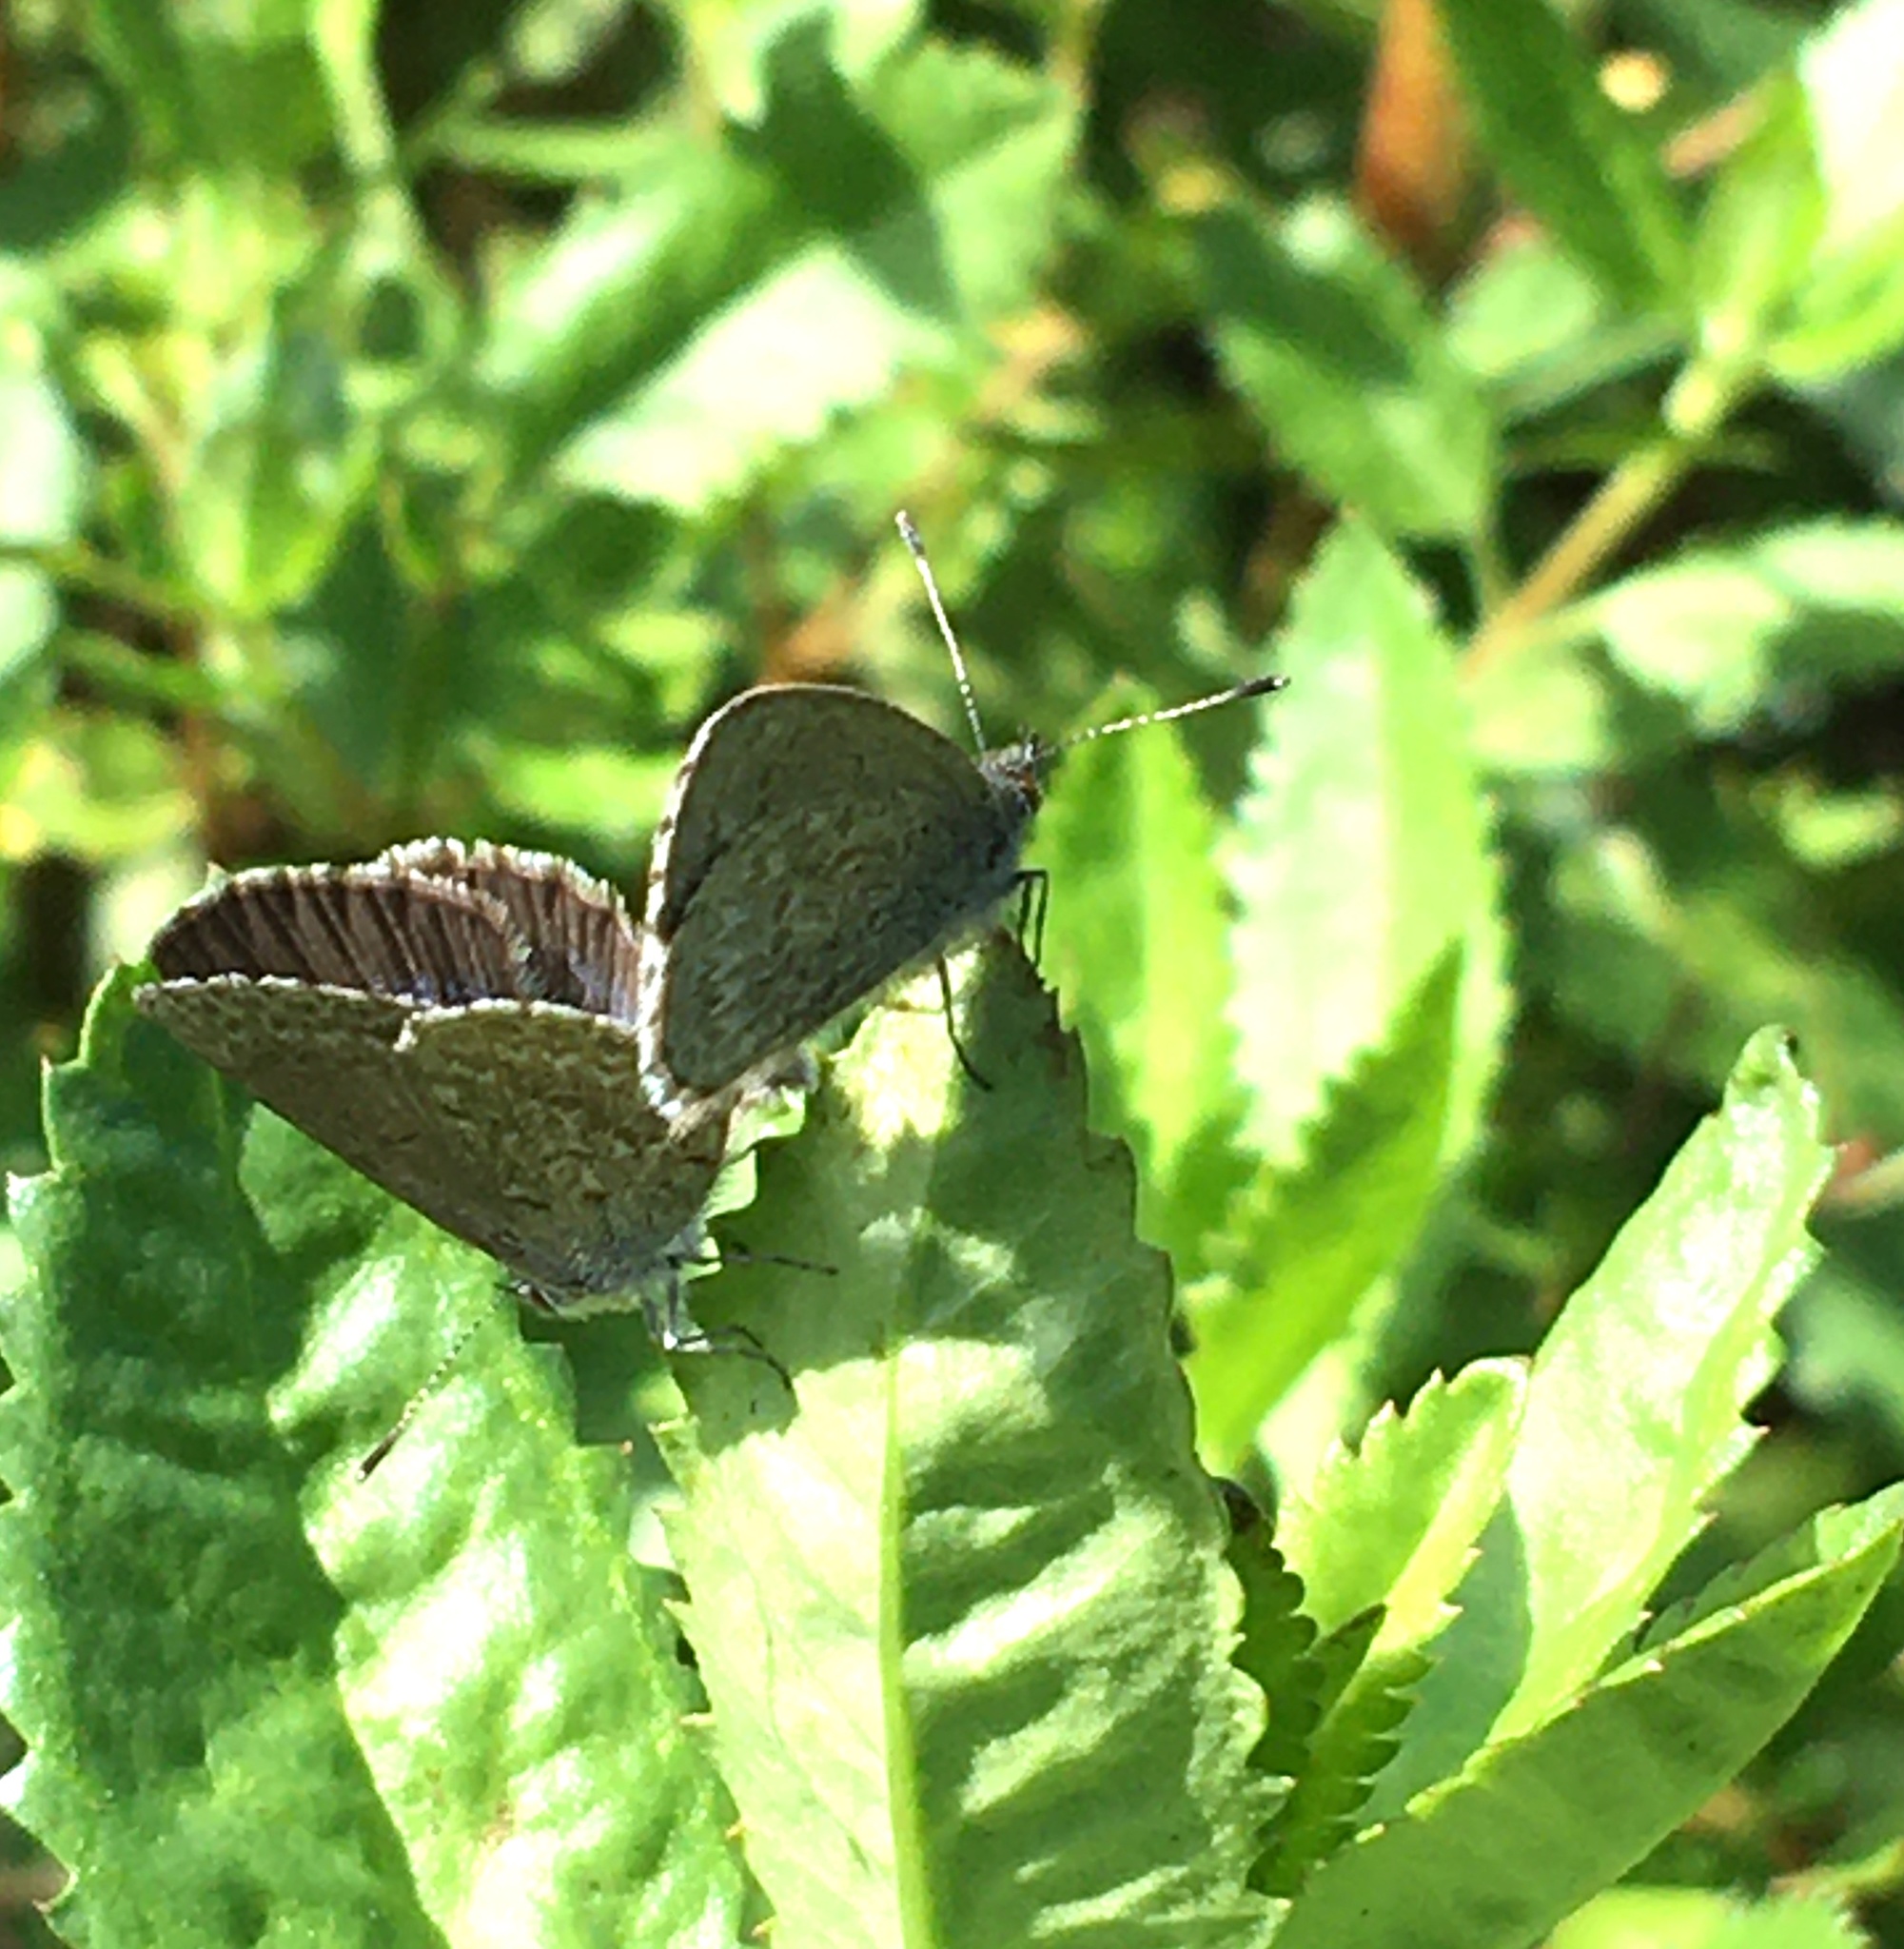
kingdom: Animalia
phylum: Arthropoda
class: Insecta
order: Lepidoptera
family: Lycaenidae
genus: Zizina
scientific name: Zizina labradus
